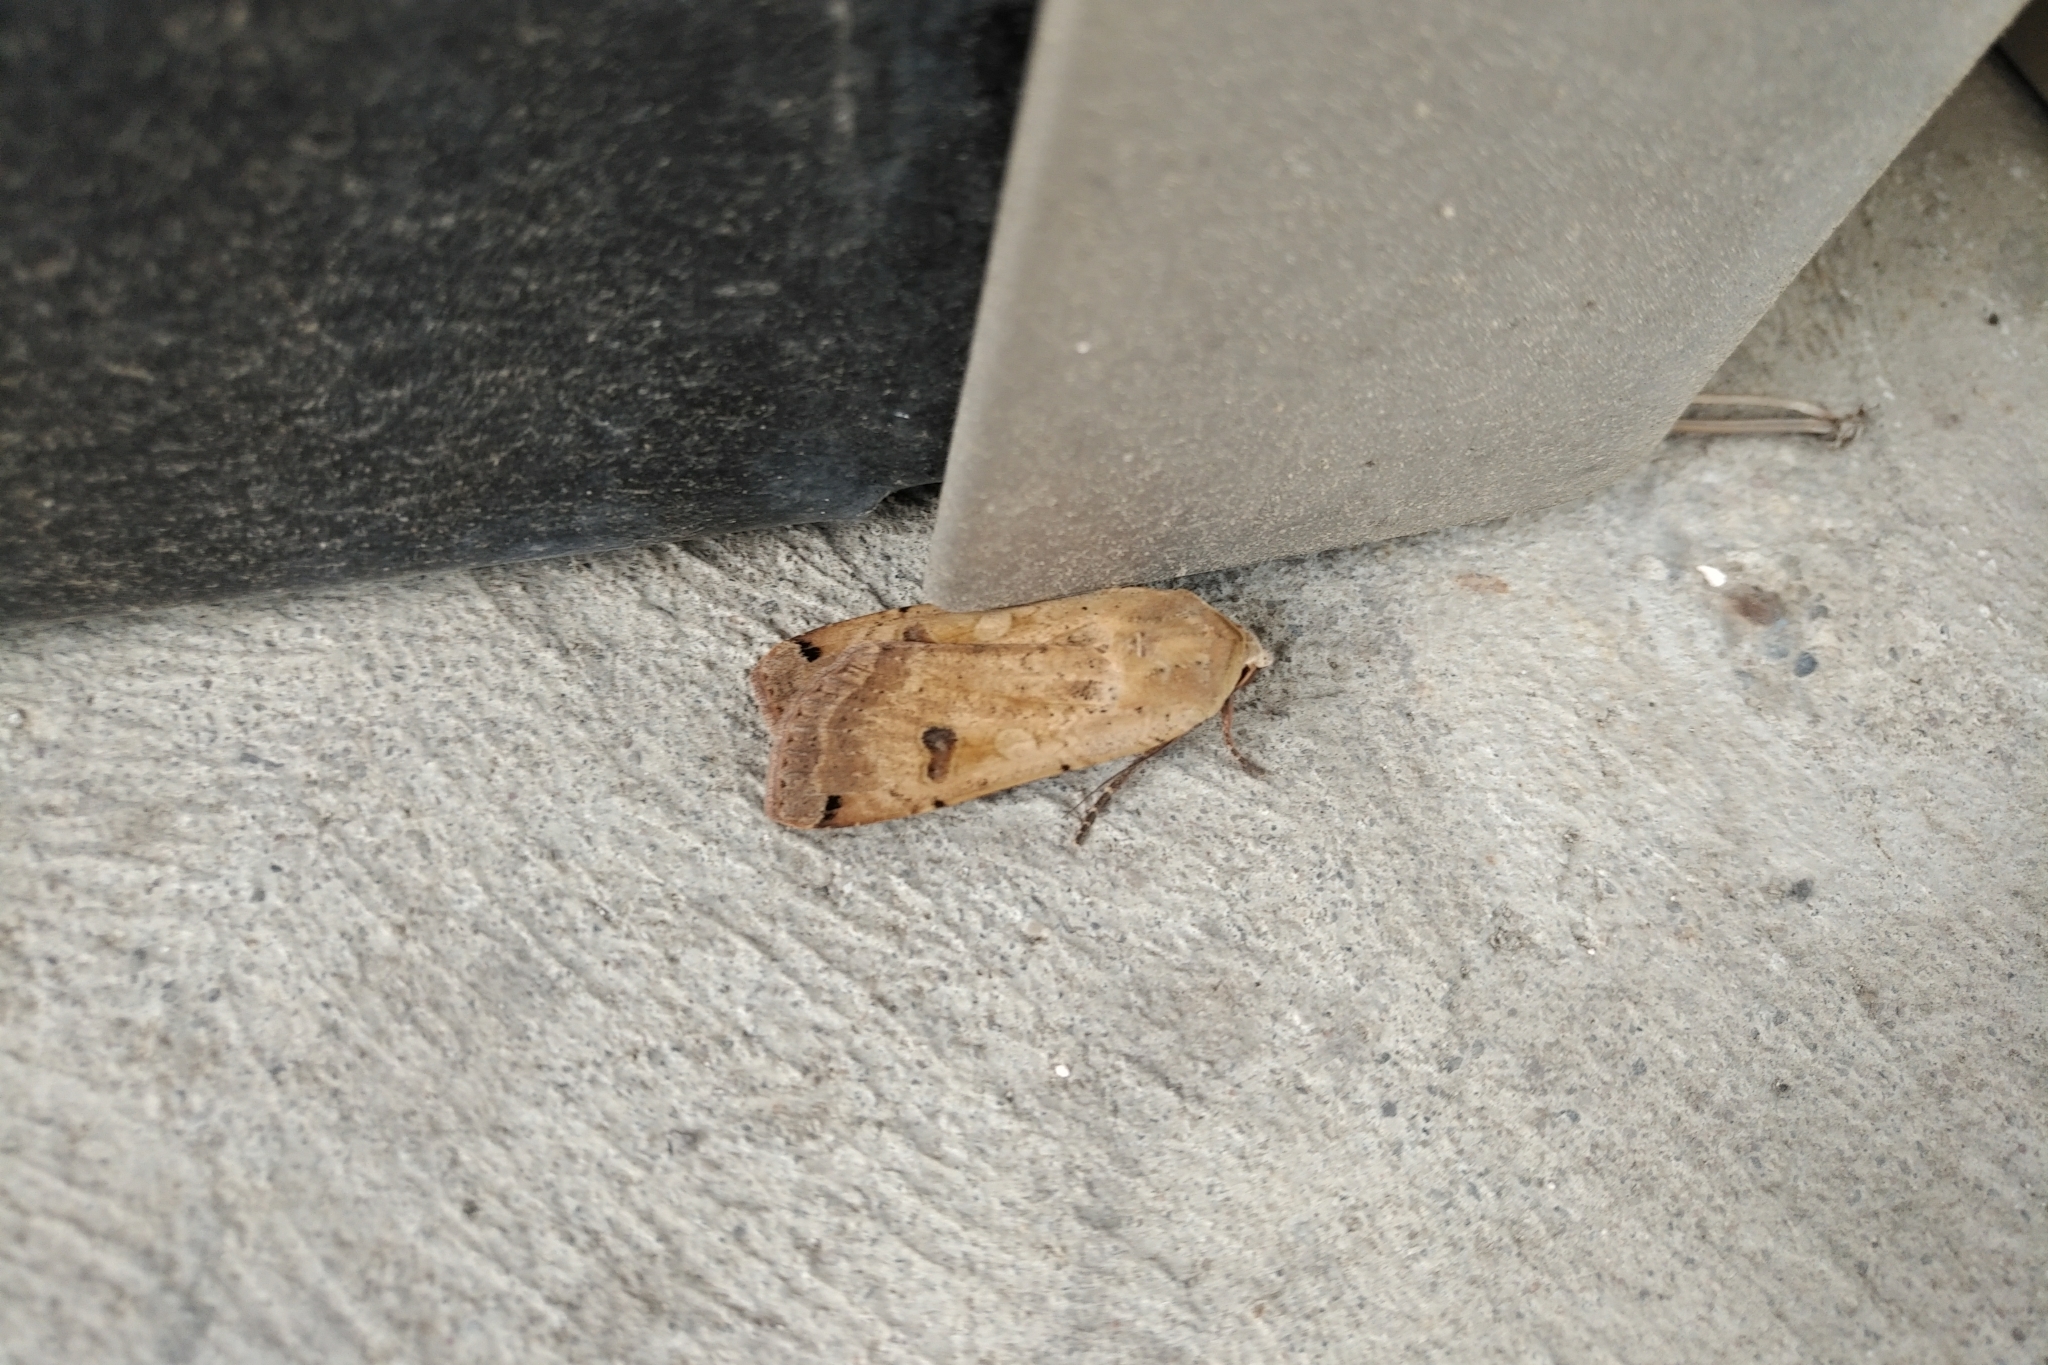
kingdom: Animalia
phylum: Arthropoda
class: Insecta
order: Lepidoptera
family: Noctuidae
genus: Noctua
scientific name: Noctua pronuba
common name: Large yellow underwing
